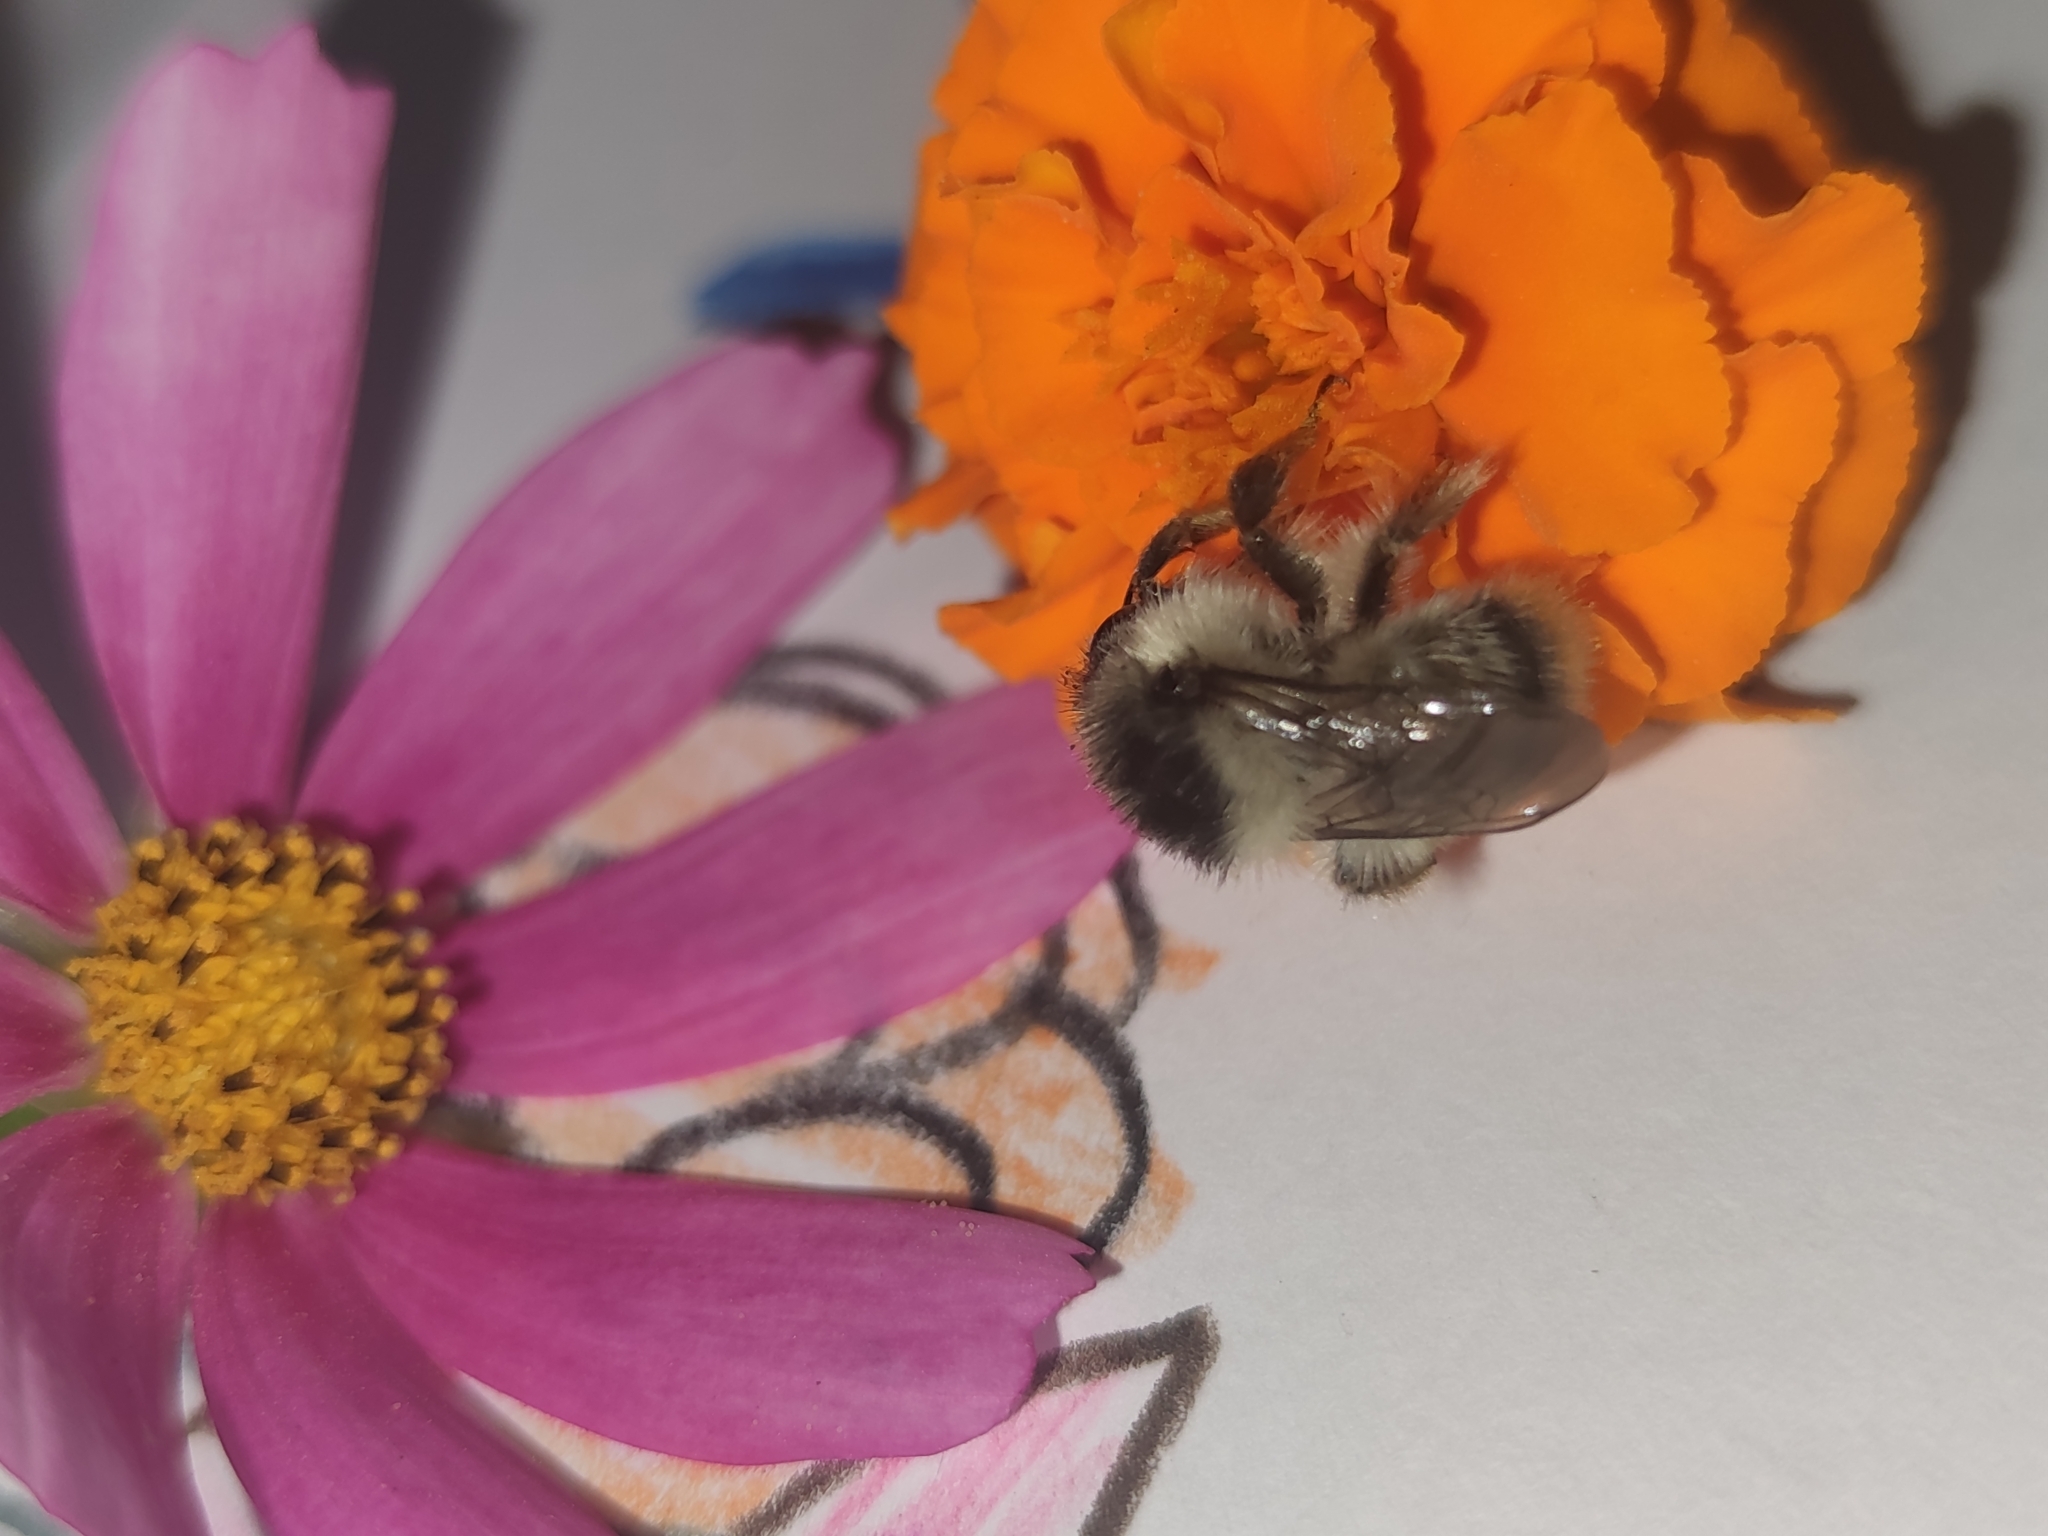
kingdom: Animalia
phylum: Arthropoda
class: Insecta
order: Hymenoptera
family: Apidae
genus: Bombus
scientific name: Bombus sylvarum
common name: Shrill carder bee
